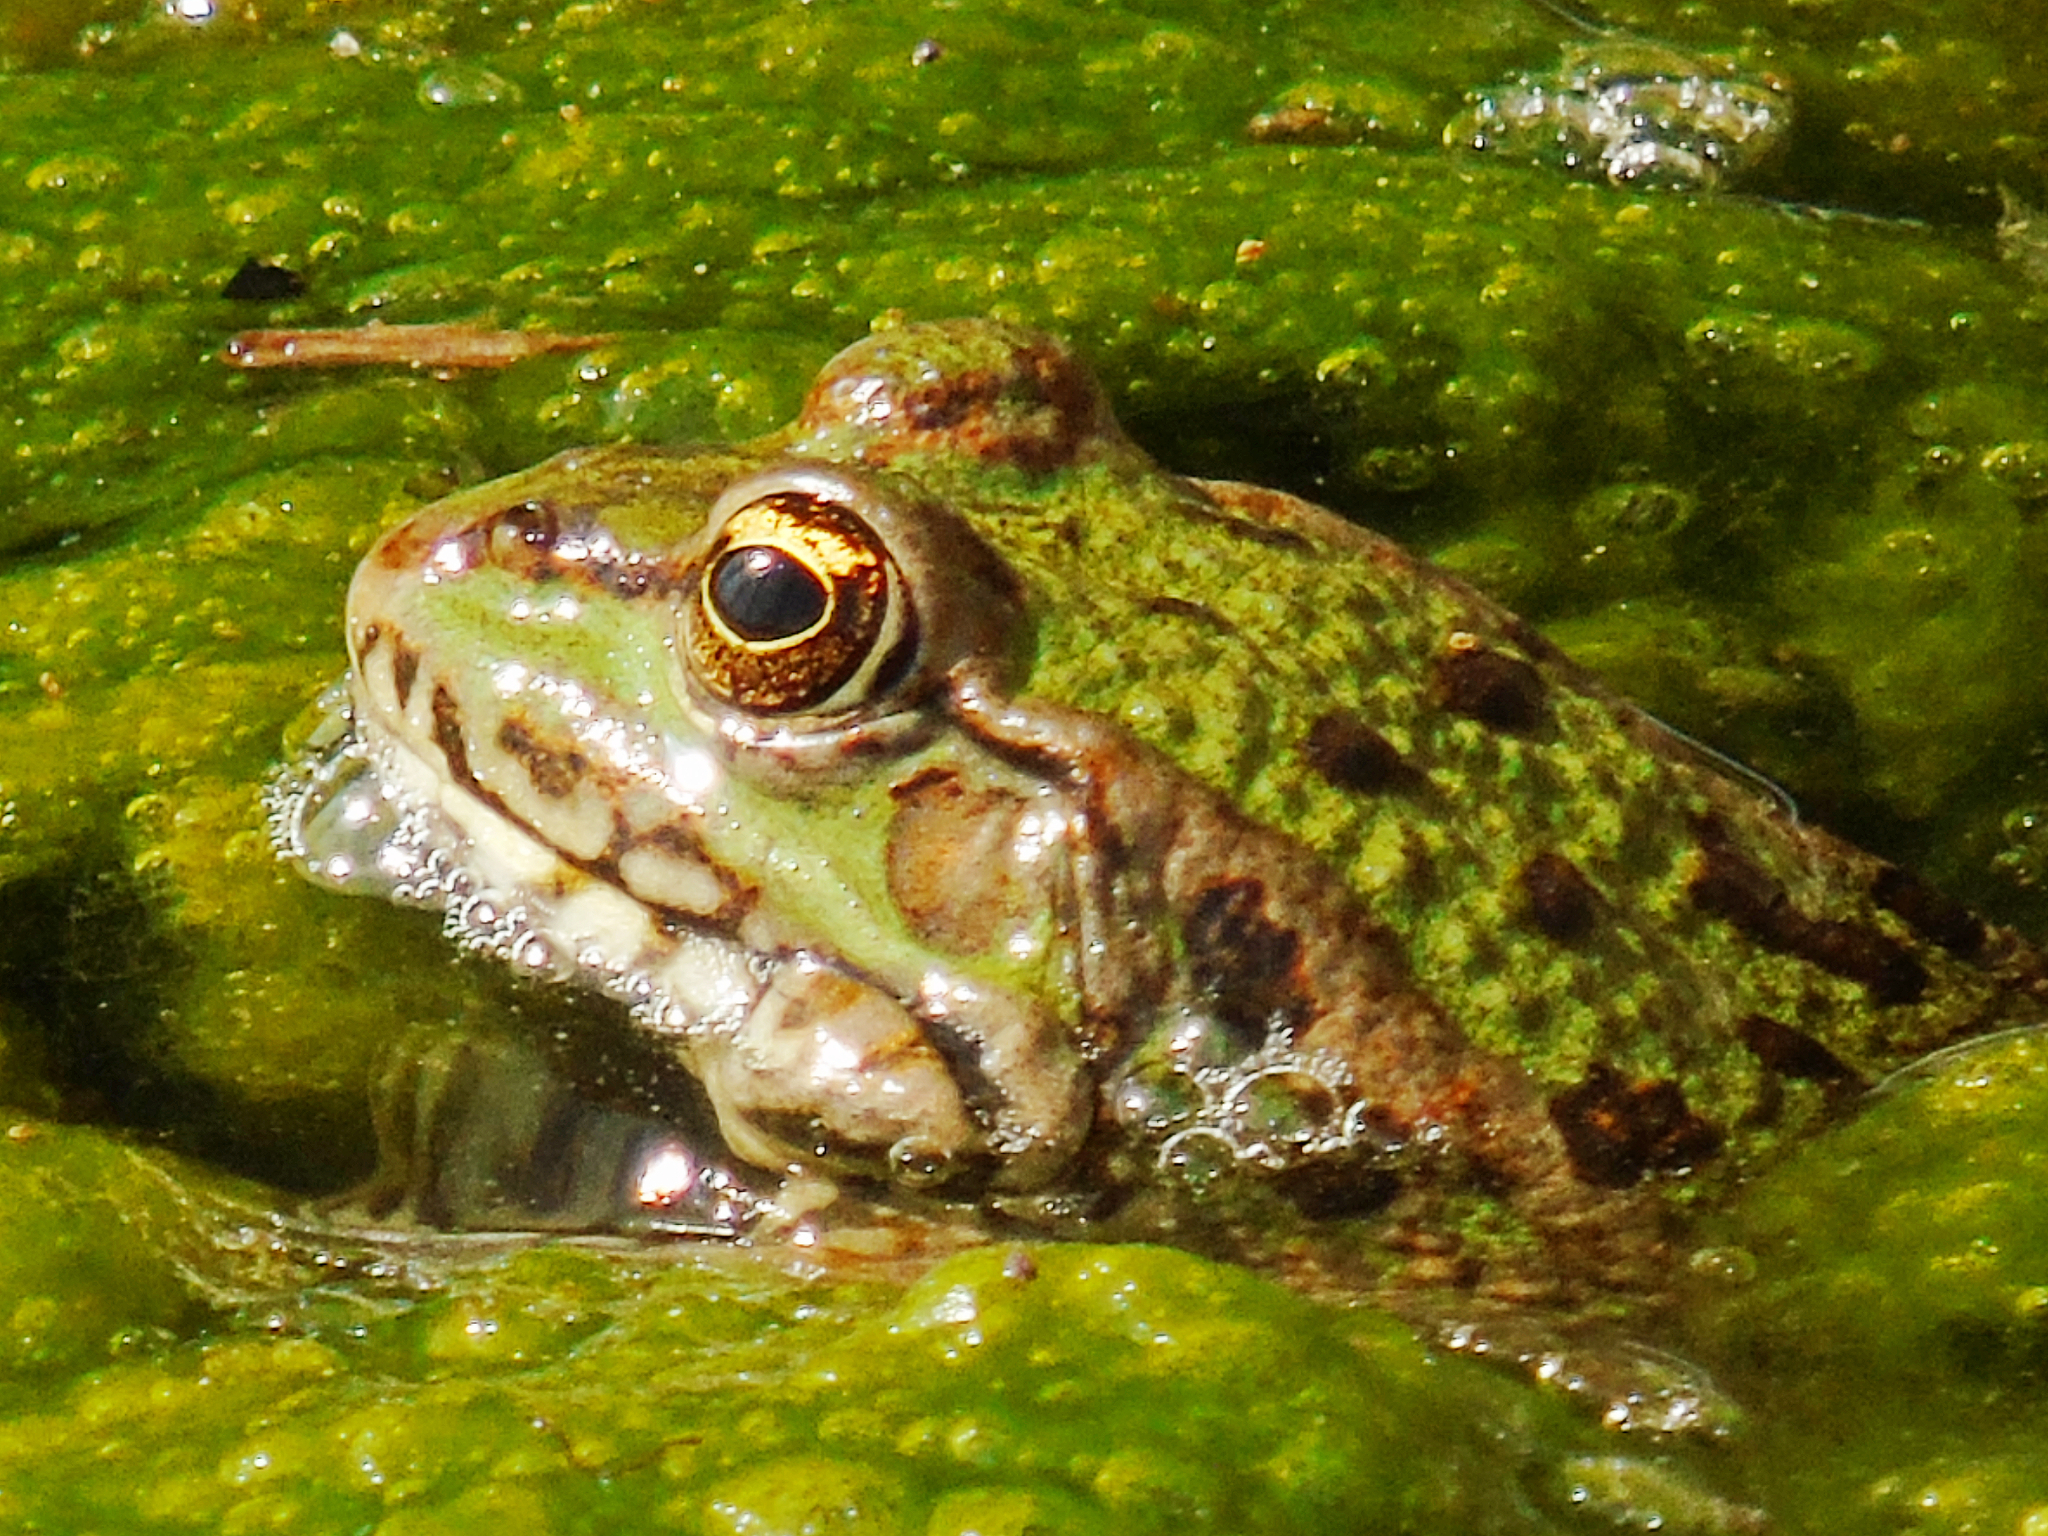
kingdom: Animalia
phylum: Chordata
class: Amphibia
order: Anura
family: Ranidae
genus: Pelophylax
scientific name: Pelophylax ridibundus
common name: Marsh frog
